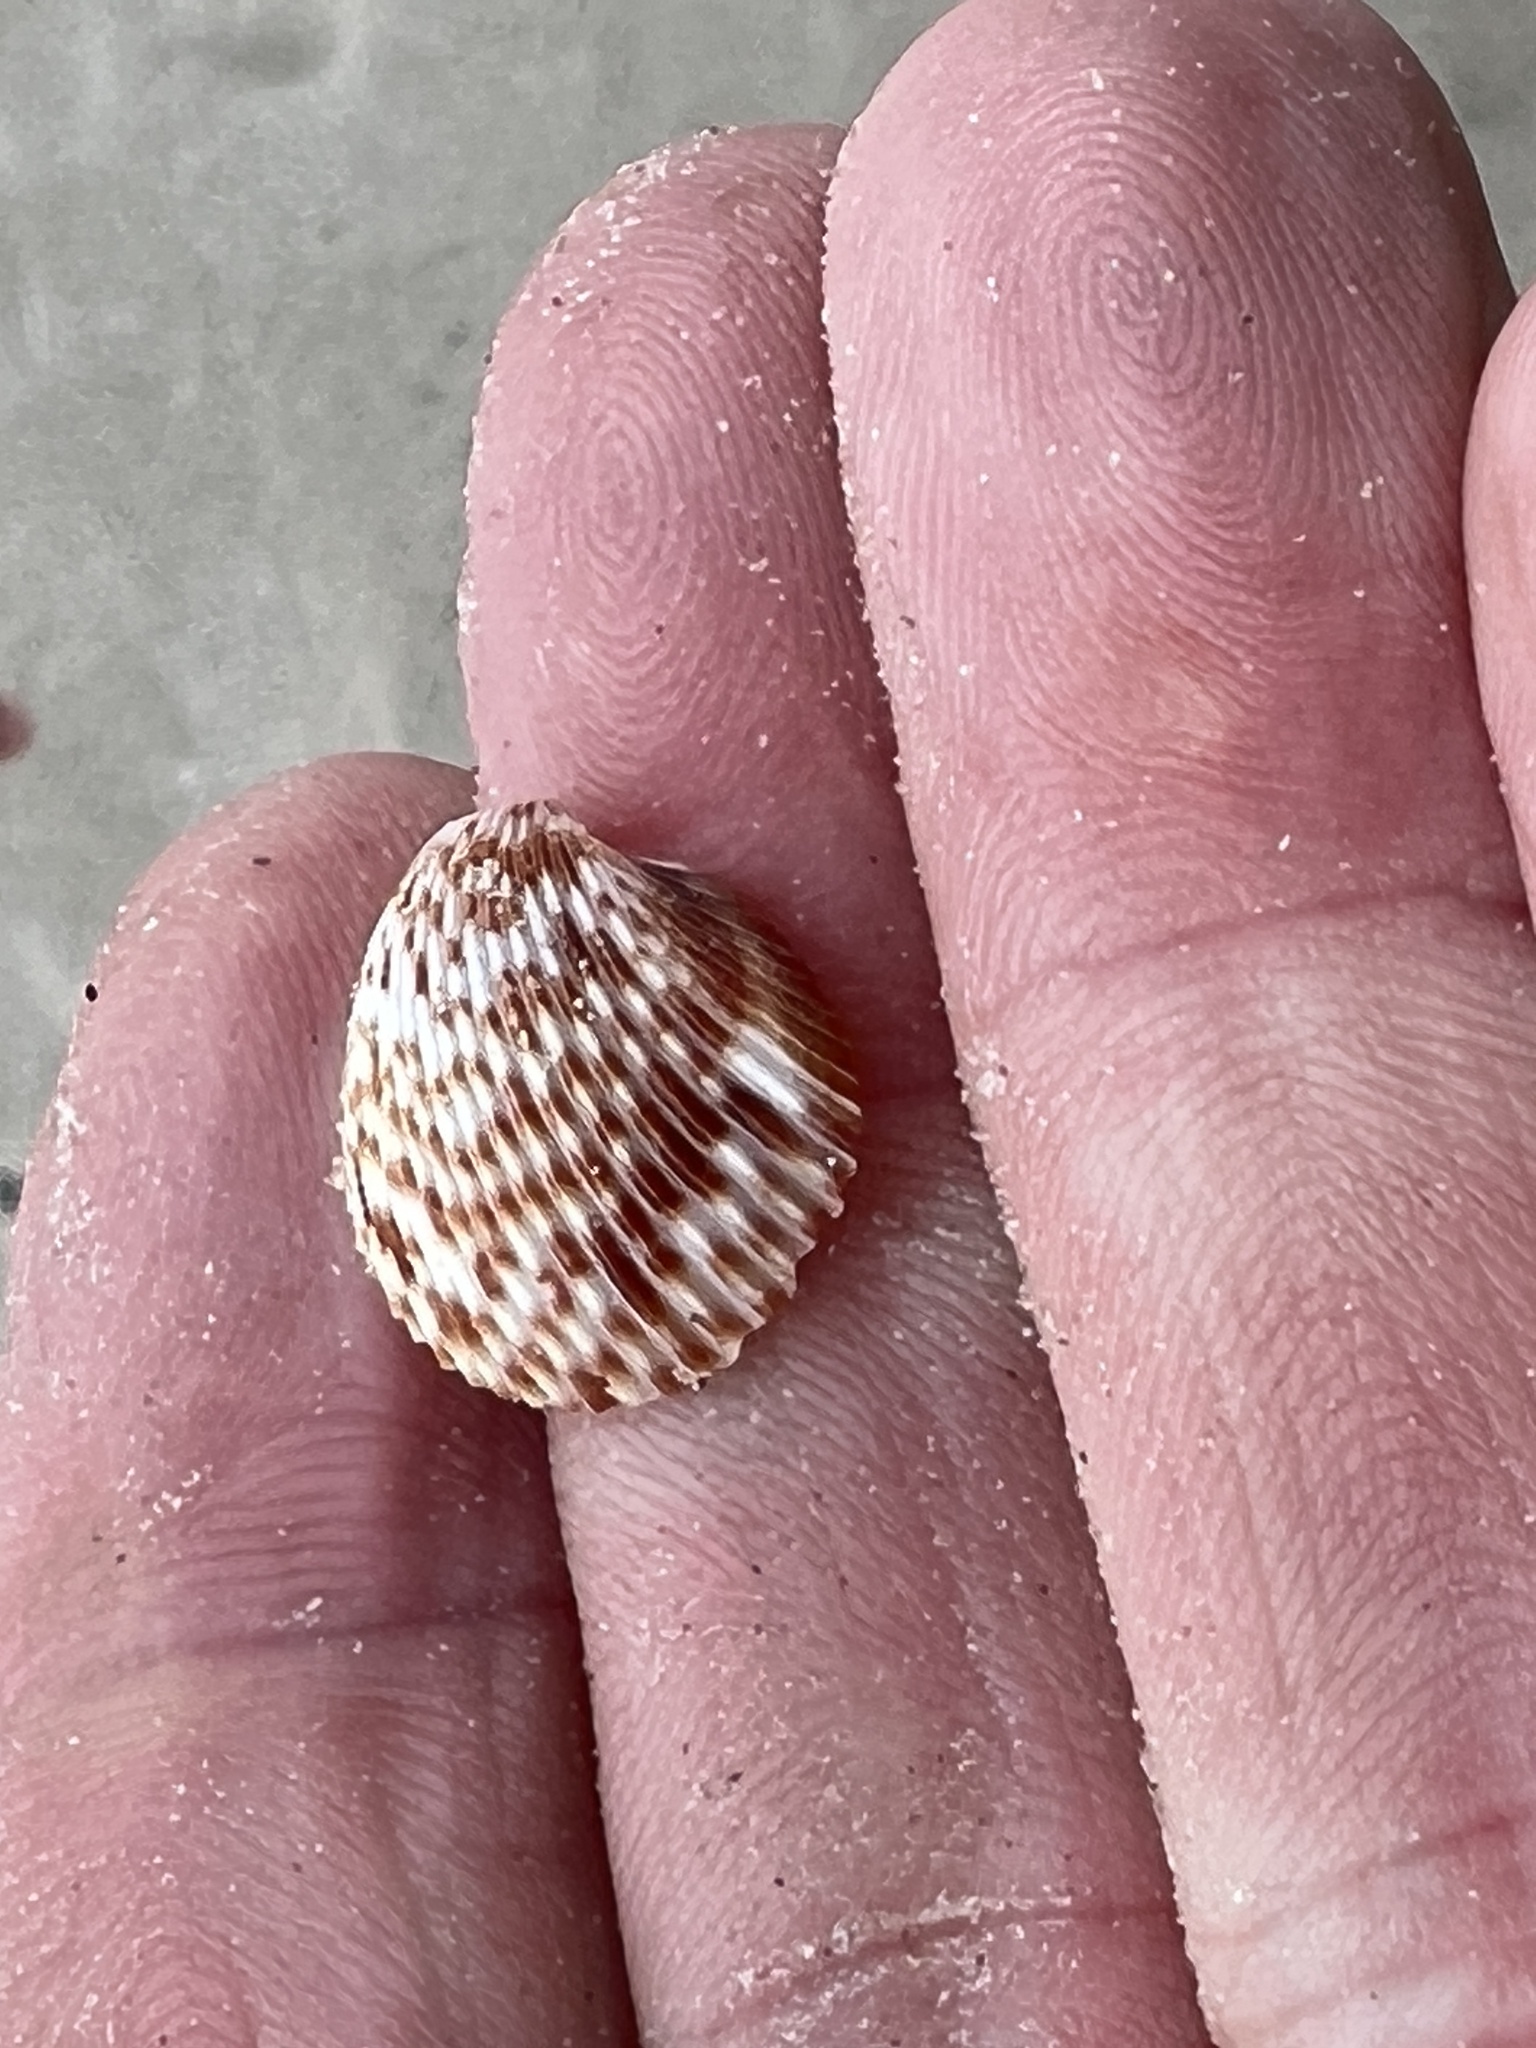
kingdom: Animalia
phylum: Mollusca
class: Bivalvia
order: Cardiida
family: Cardiidae
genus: Dinocardium
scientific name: Dinocardium robustum
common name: Atlantic giant cockle
